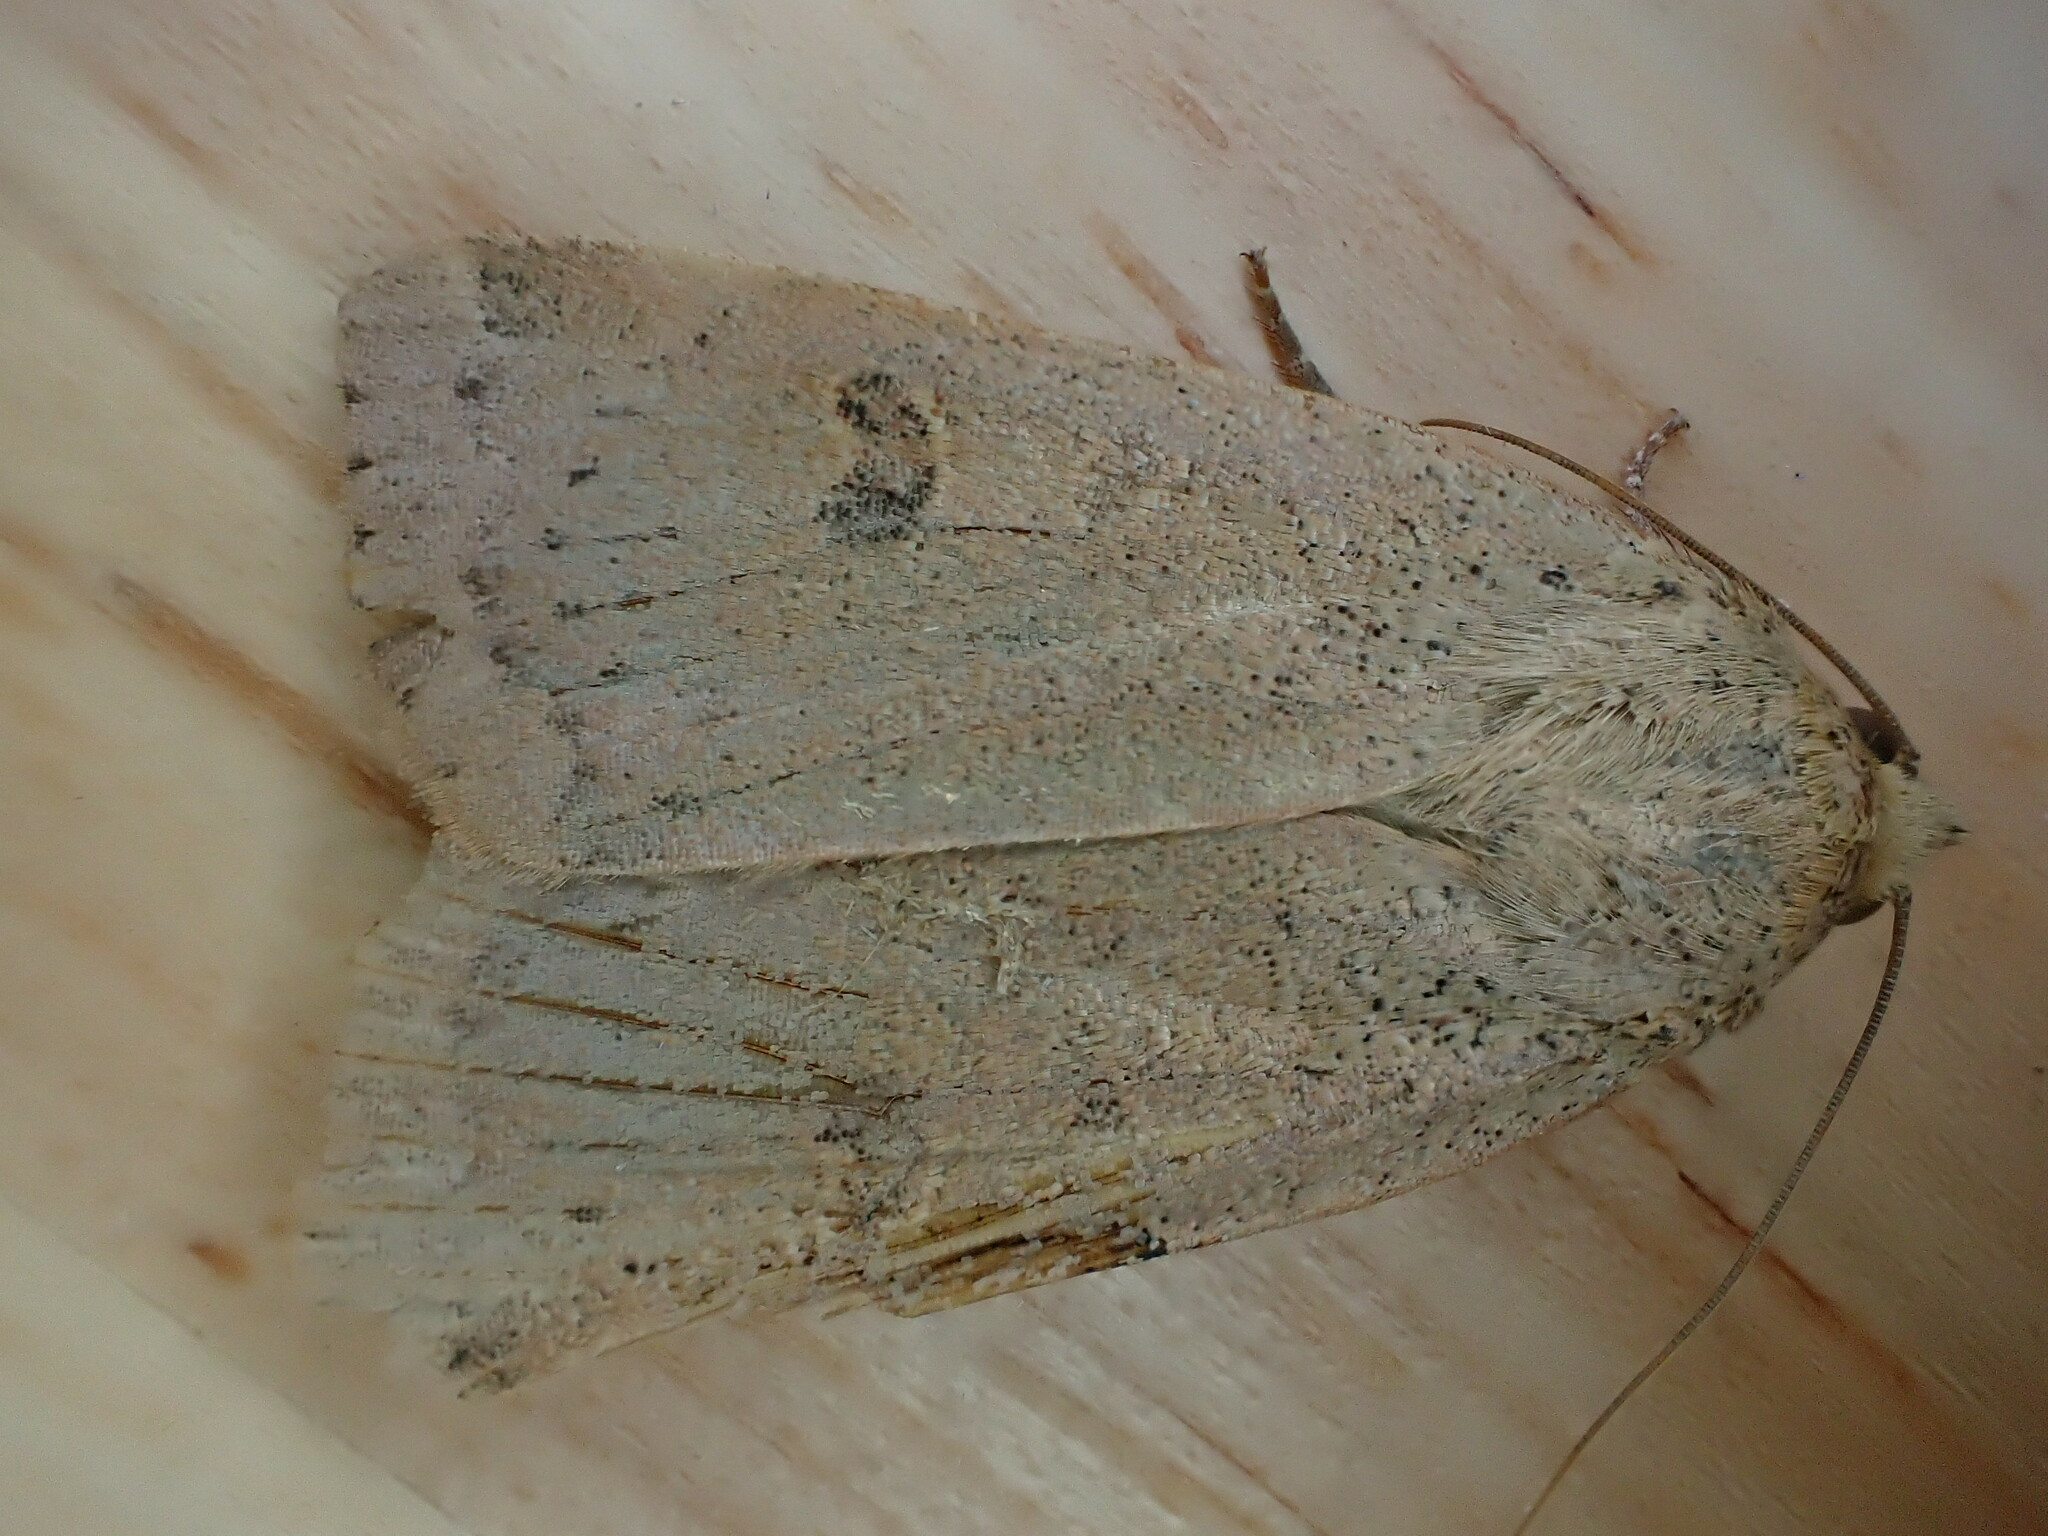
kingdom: Animalia
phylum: Arthropoda
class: Insecta
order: Lepidoptera
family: Noctuidae
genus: Noctua
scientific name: Noctua comes
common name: Lesser yellow underwing
